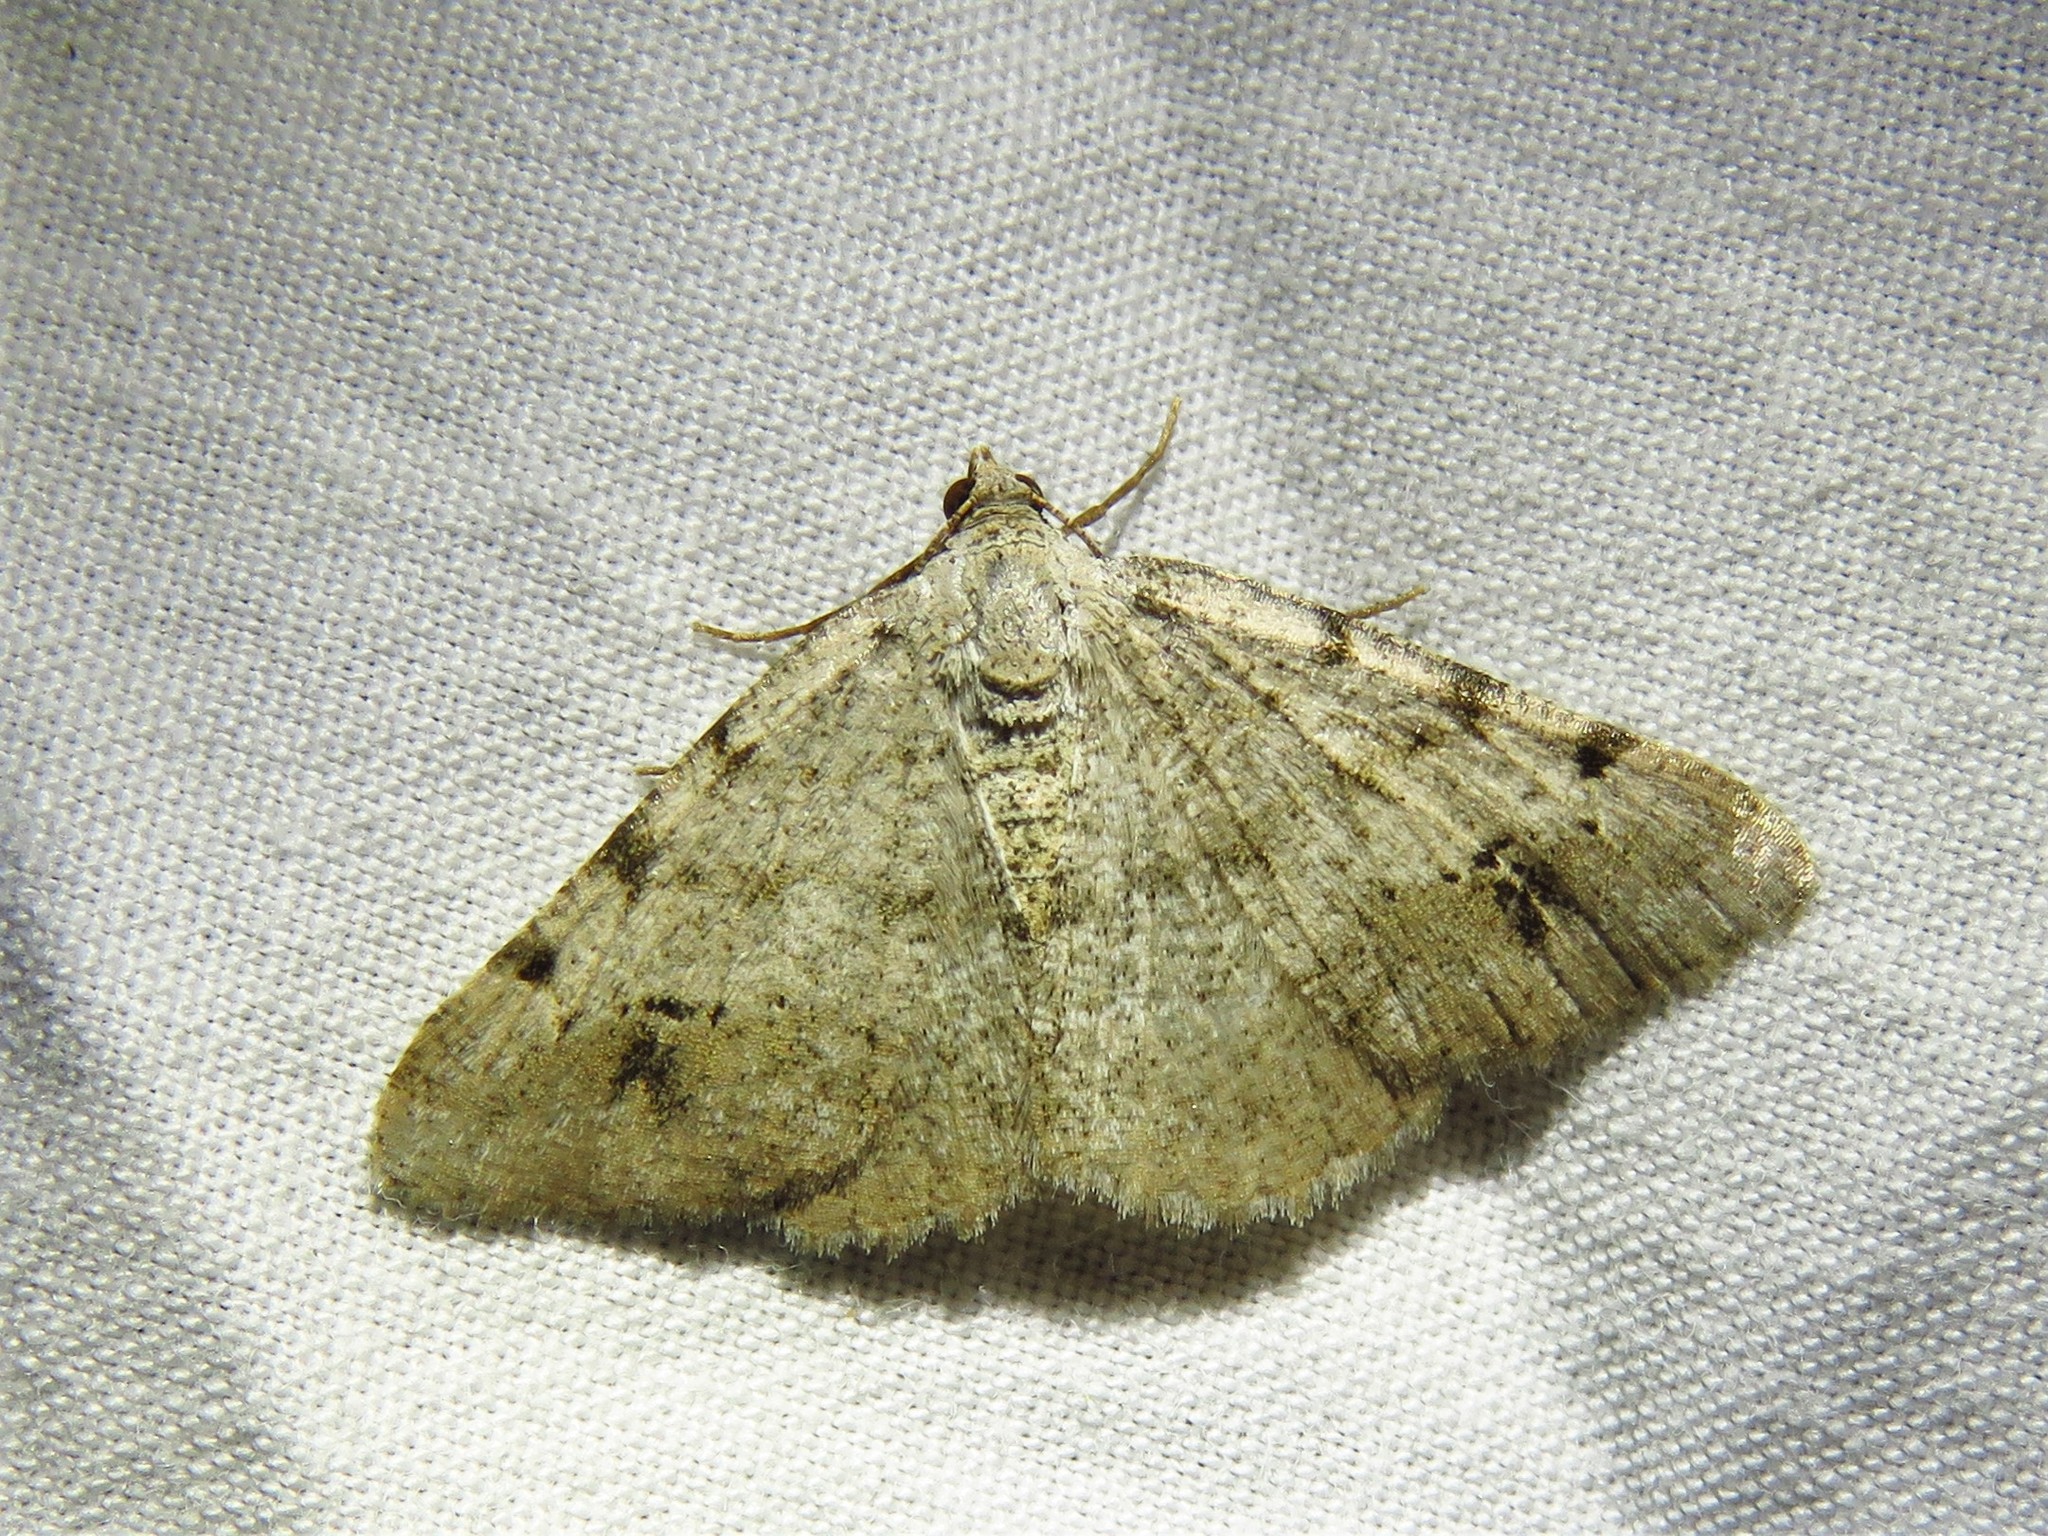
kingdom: Animalia
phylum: Arthropoda
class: Insecta
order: Lepidoptera
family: Geometridae
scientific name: Geometridae
